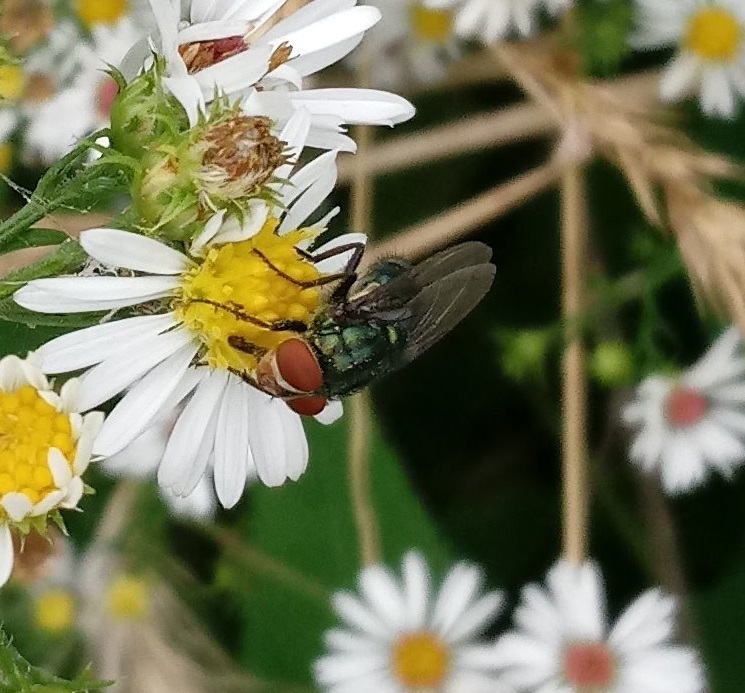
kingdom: Animalia
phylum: Arthropoda
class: Insecta
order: Diptera
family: Calliphoridae
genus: Cochliomyia
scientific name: Cochliomyia macellaria
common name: Secondary screwworm
